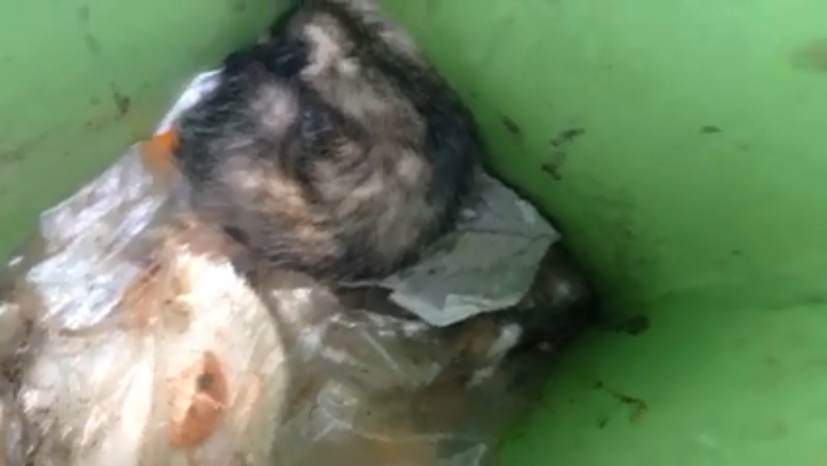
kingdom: Animalia
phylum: Chordata
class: Mammalia
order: Didelphimorphia
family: Didelphidae
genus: Didelphis
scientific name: Didelphis virginiana
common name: Virginia opossum
